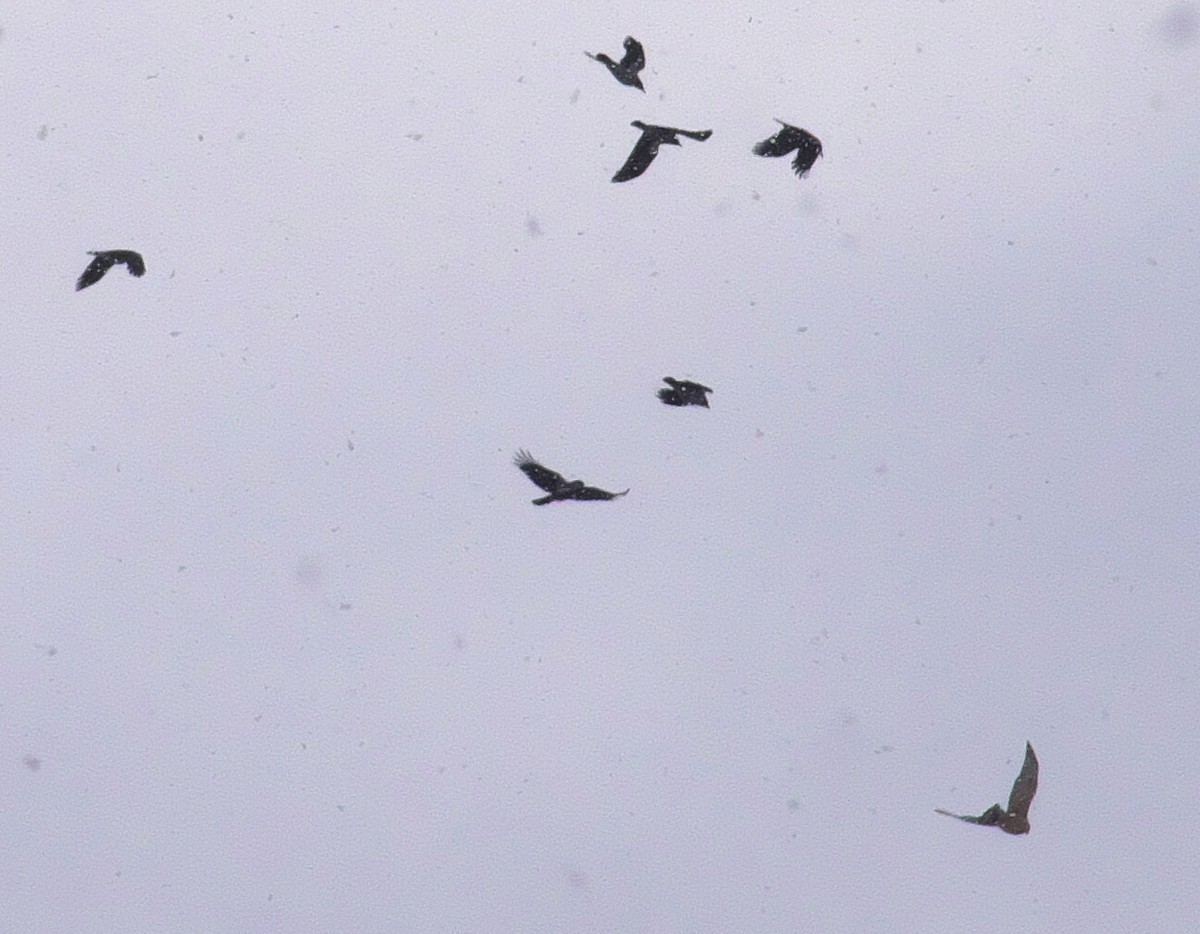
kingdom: Animalia
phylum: Chordata
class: Aves
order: Accipitriformes
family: Accipitridae
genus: Accipiter
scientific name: Accipiter gentilis
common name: Northern goshawk
